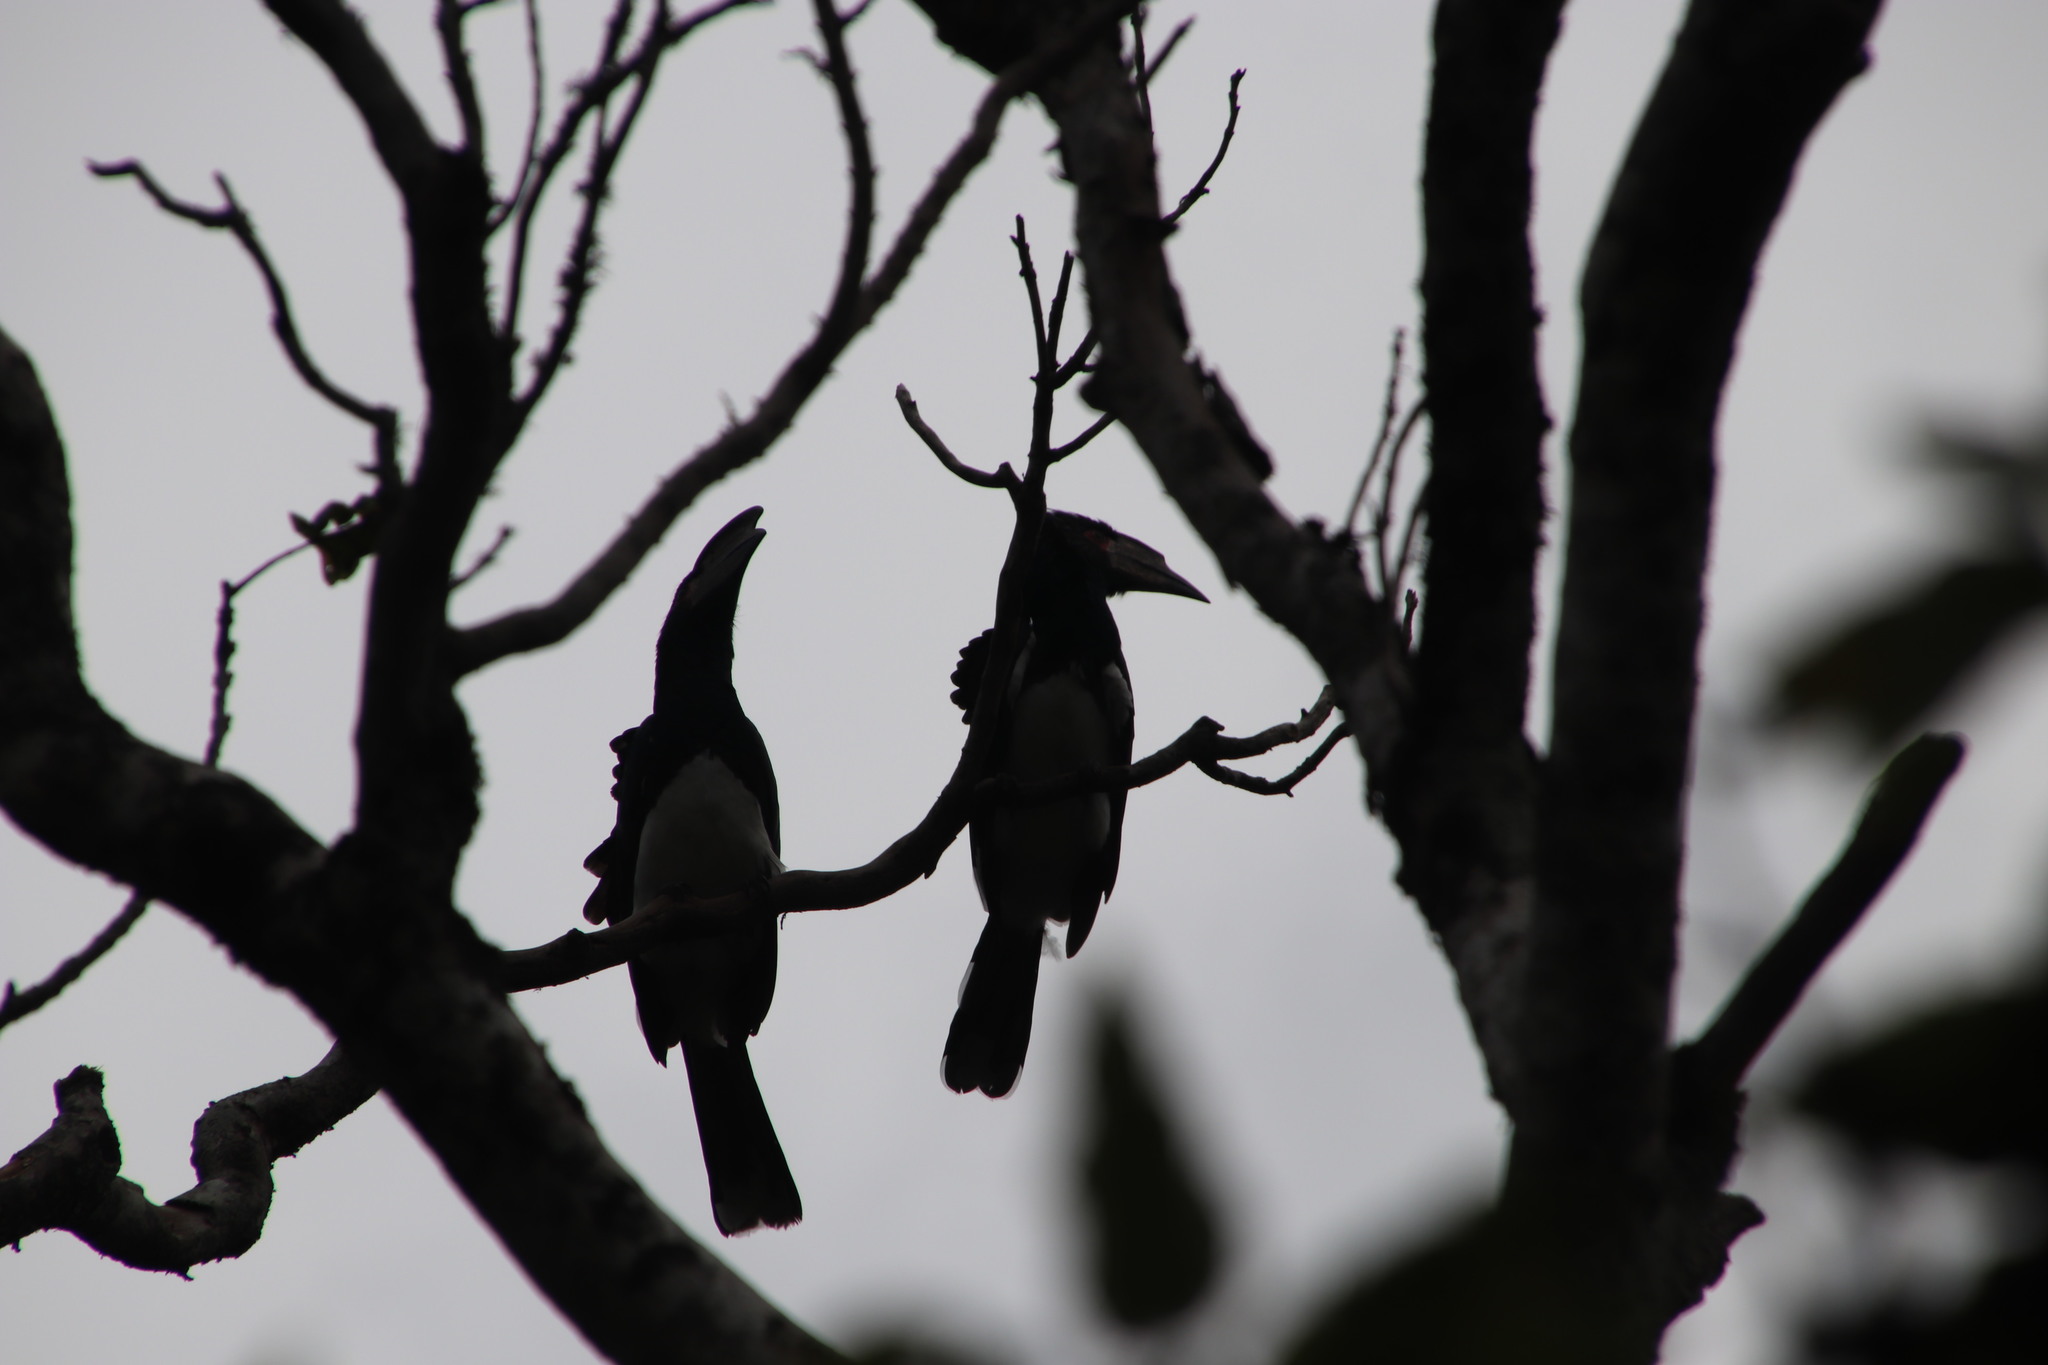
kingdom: Animalia
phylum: Chordata
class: Aves
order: Bucerotiformes
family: Bucerotidae
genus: Bycanistes
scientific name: Bycanistes bucinator
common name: Trumpeter hornbill
